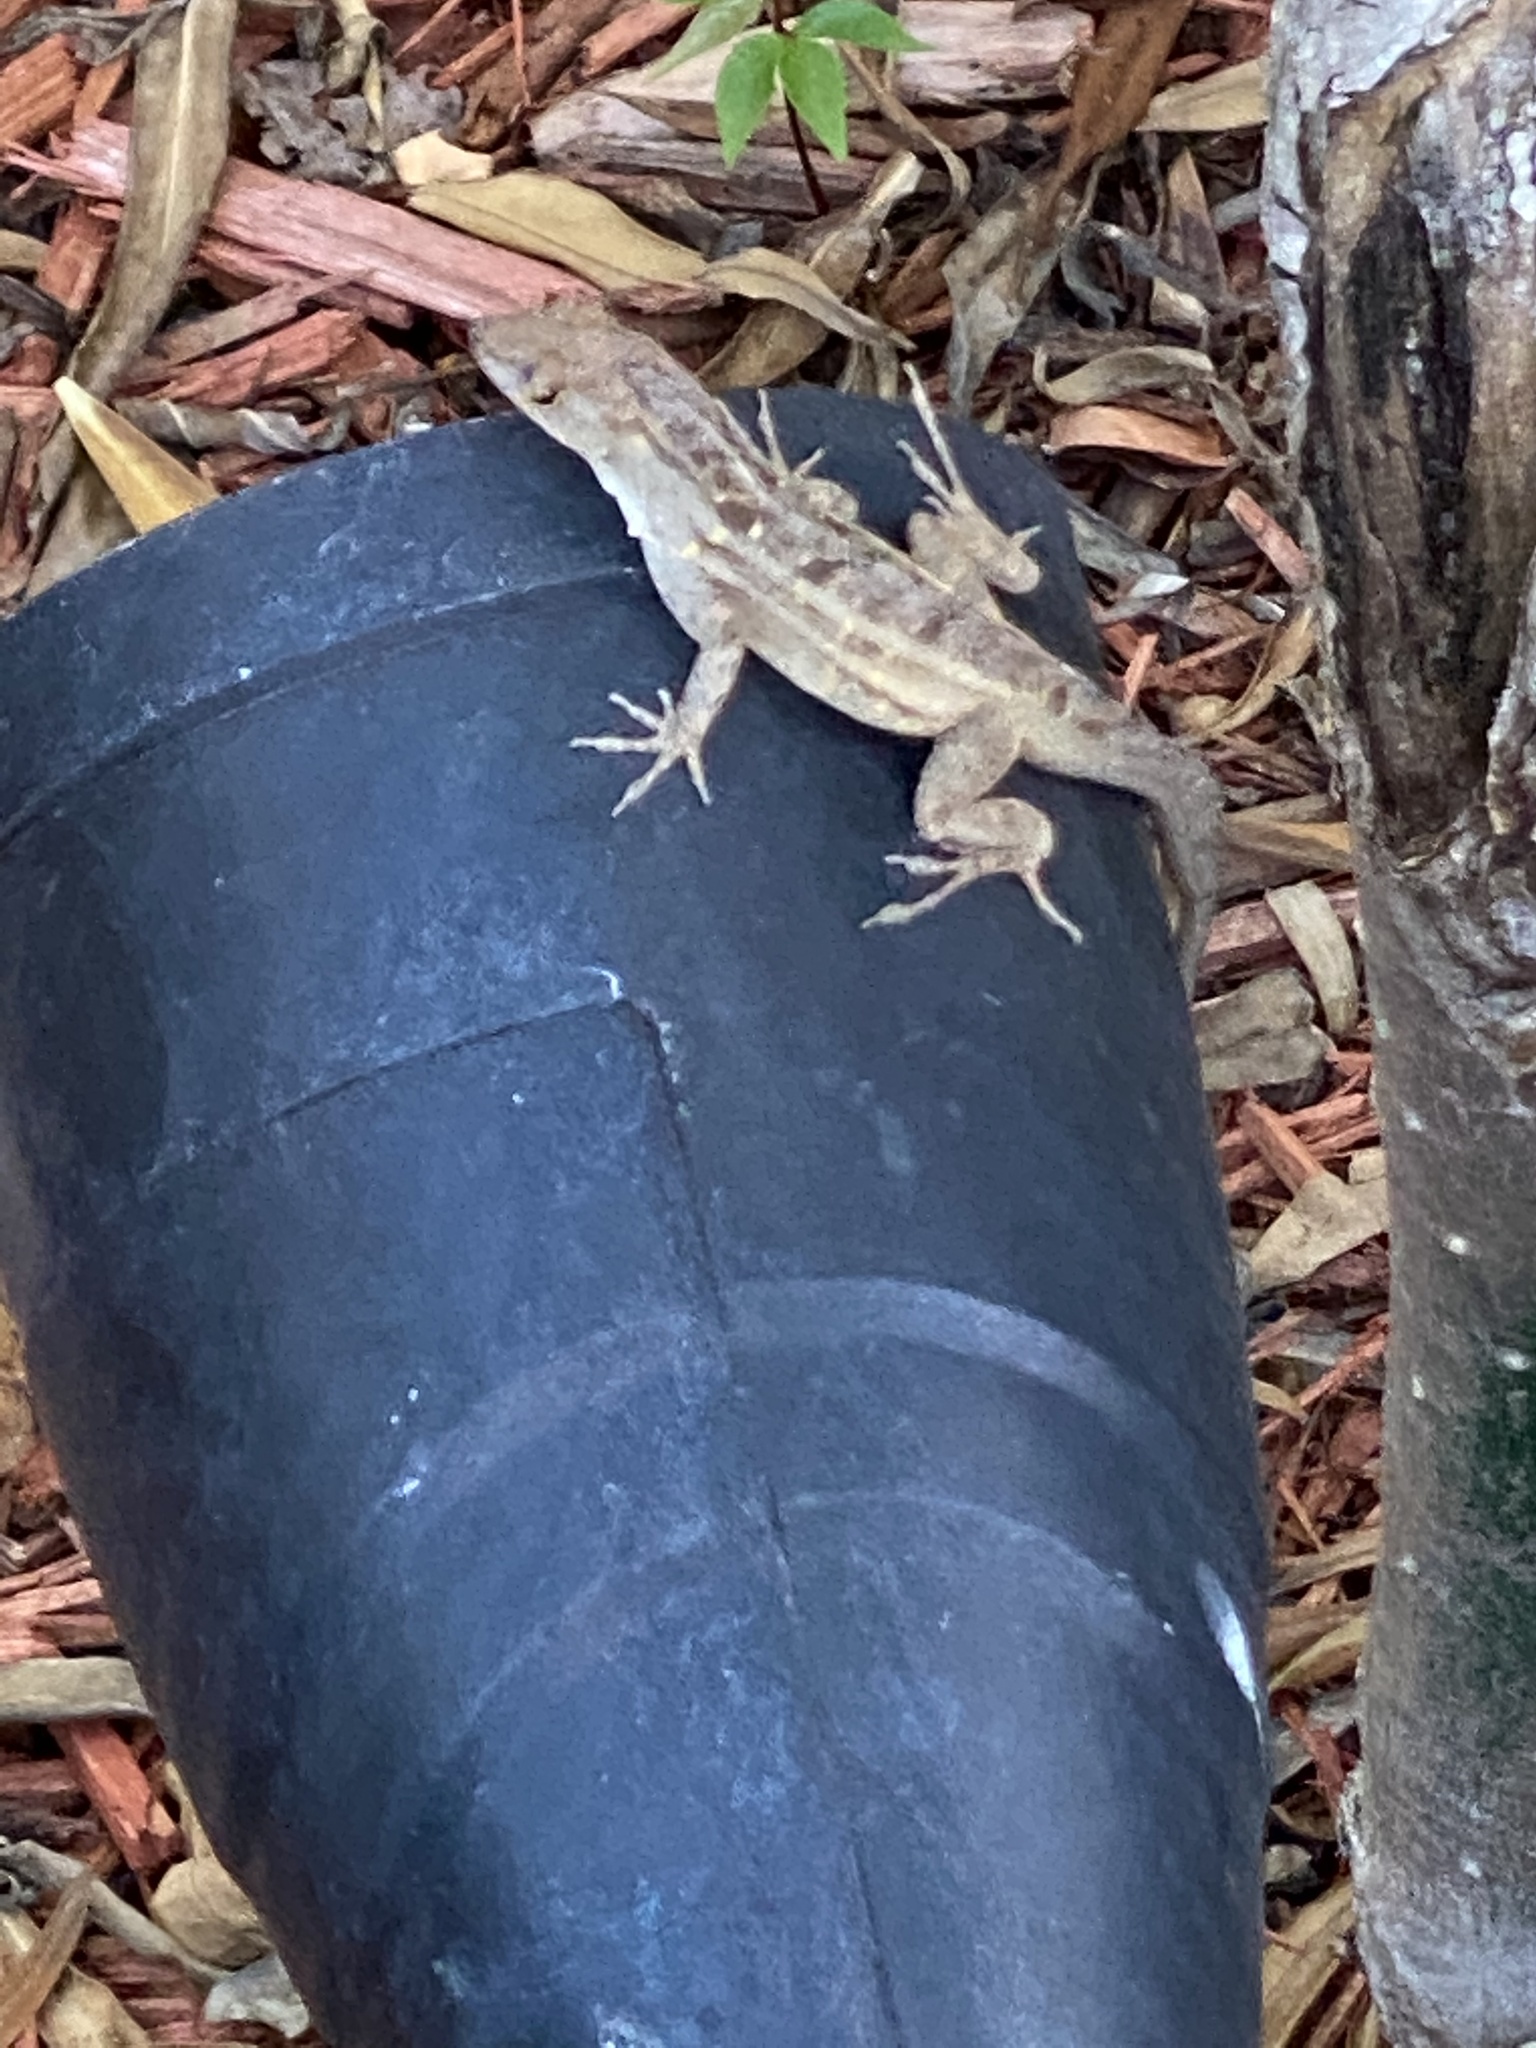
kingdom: Animalia
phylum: Chordata
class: Squamata
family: Dactyloidae
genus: Anolis
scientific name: Anolis sagrei
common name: Brown anole
